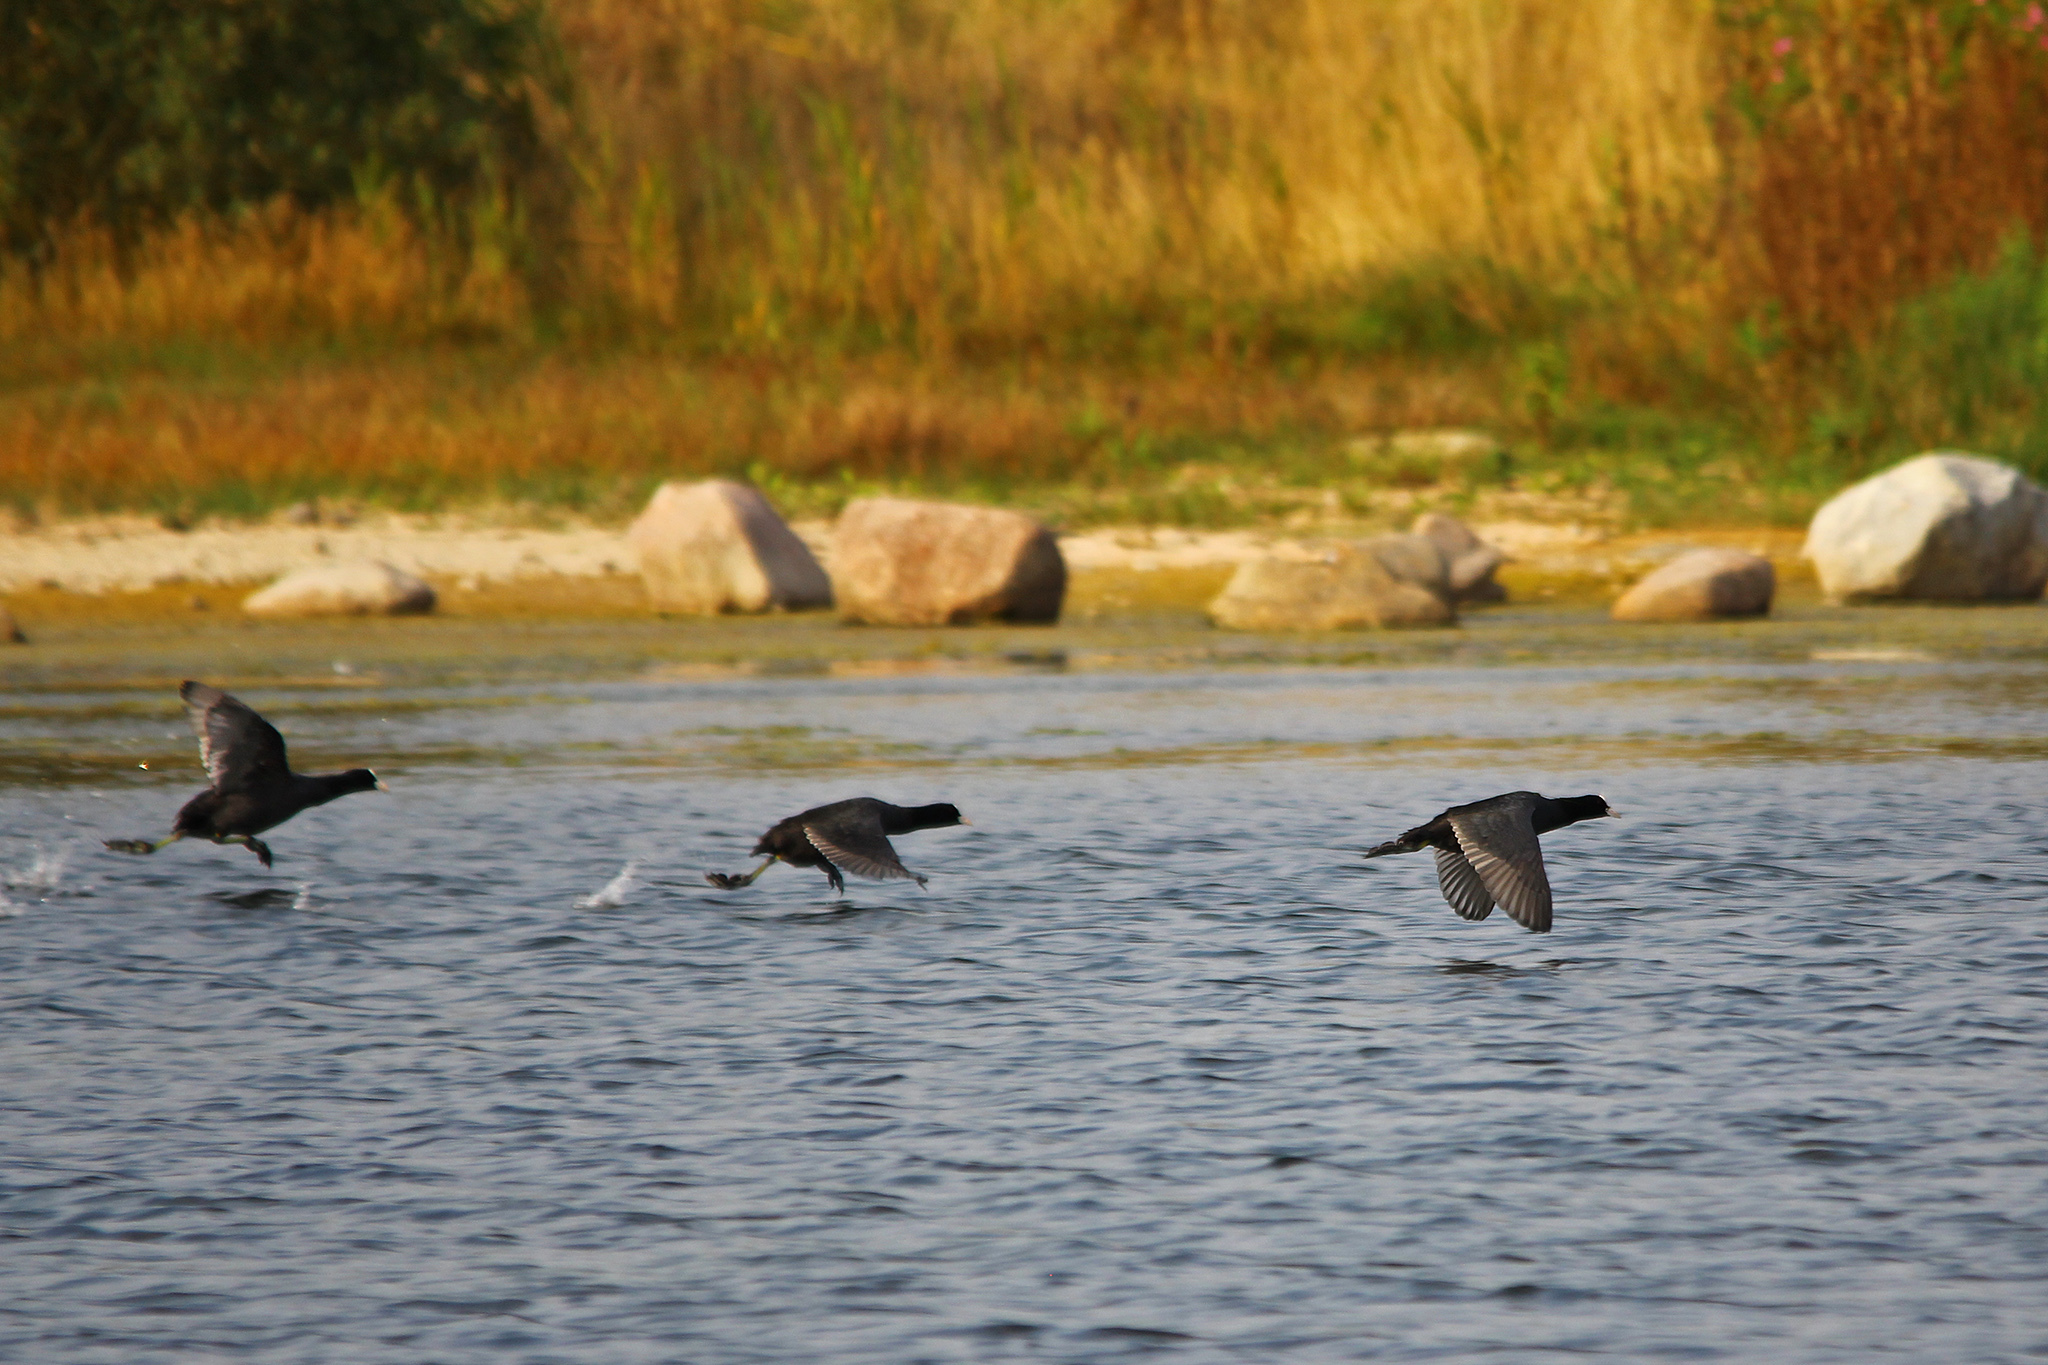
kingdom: Animalia
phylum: Chordata
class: Aves
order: Gruiformes
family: Rallidae
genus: Fulica
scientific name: Fulica atra
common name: Eurasian coot
